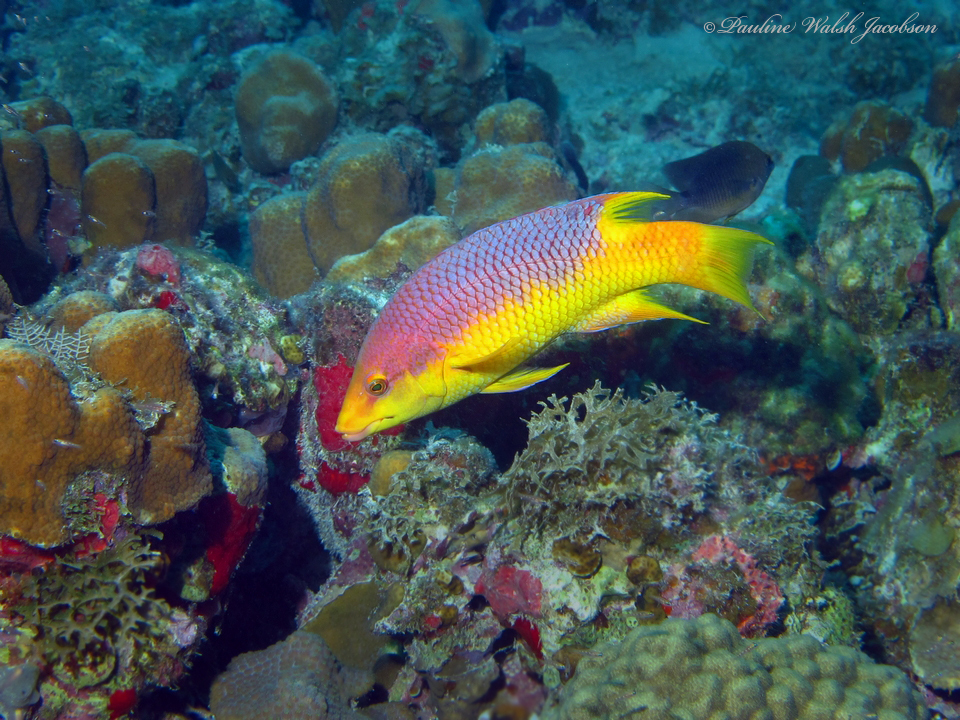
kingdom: Animalia
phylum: Chordata
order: Perciformes
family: Labridae
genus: Bodianus
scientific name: Bodianus rufus
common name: Spanish hogfish
